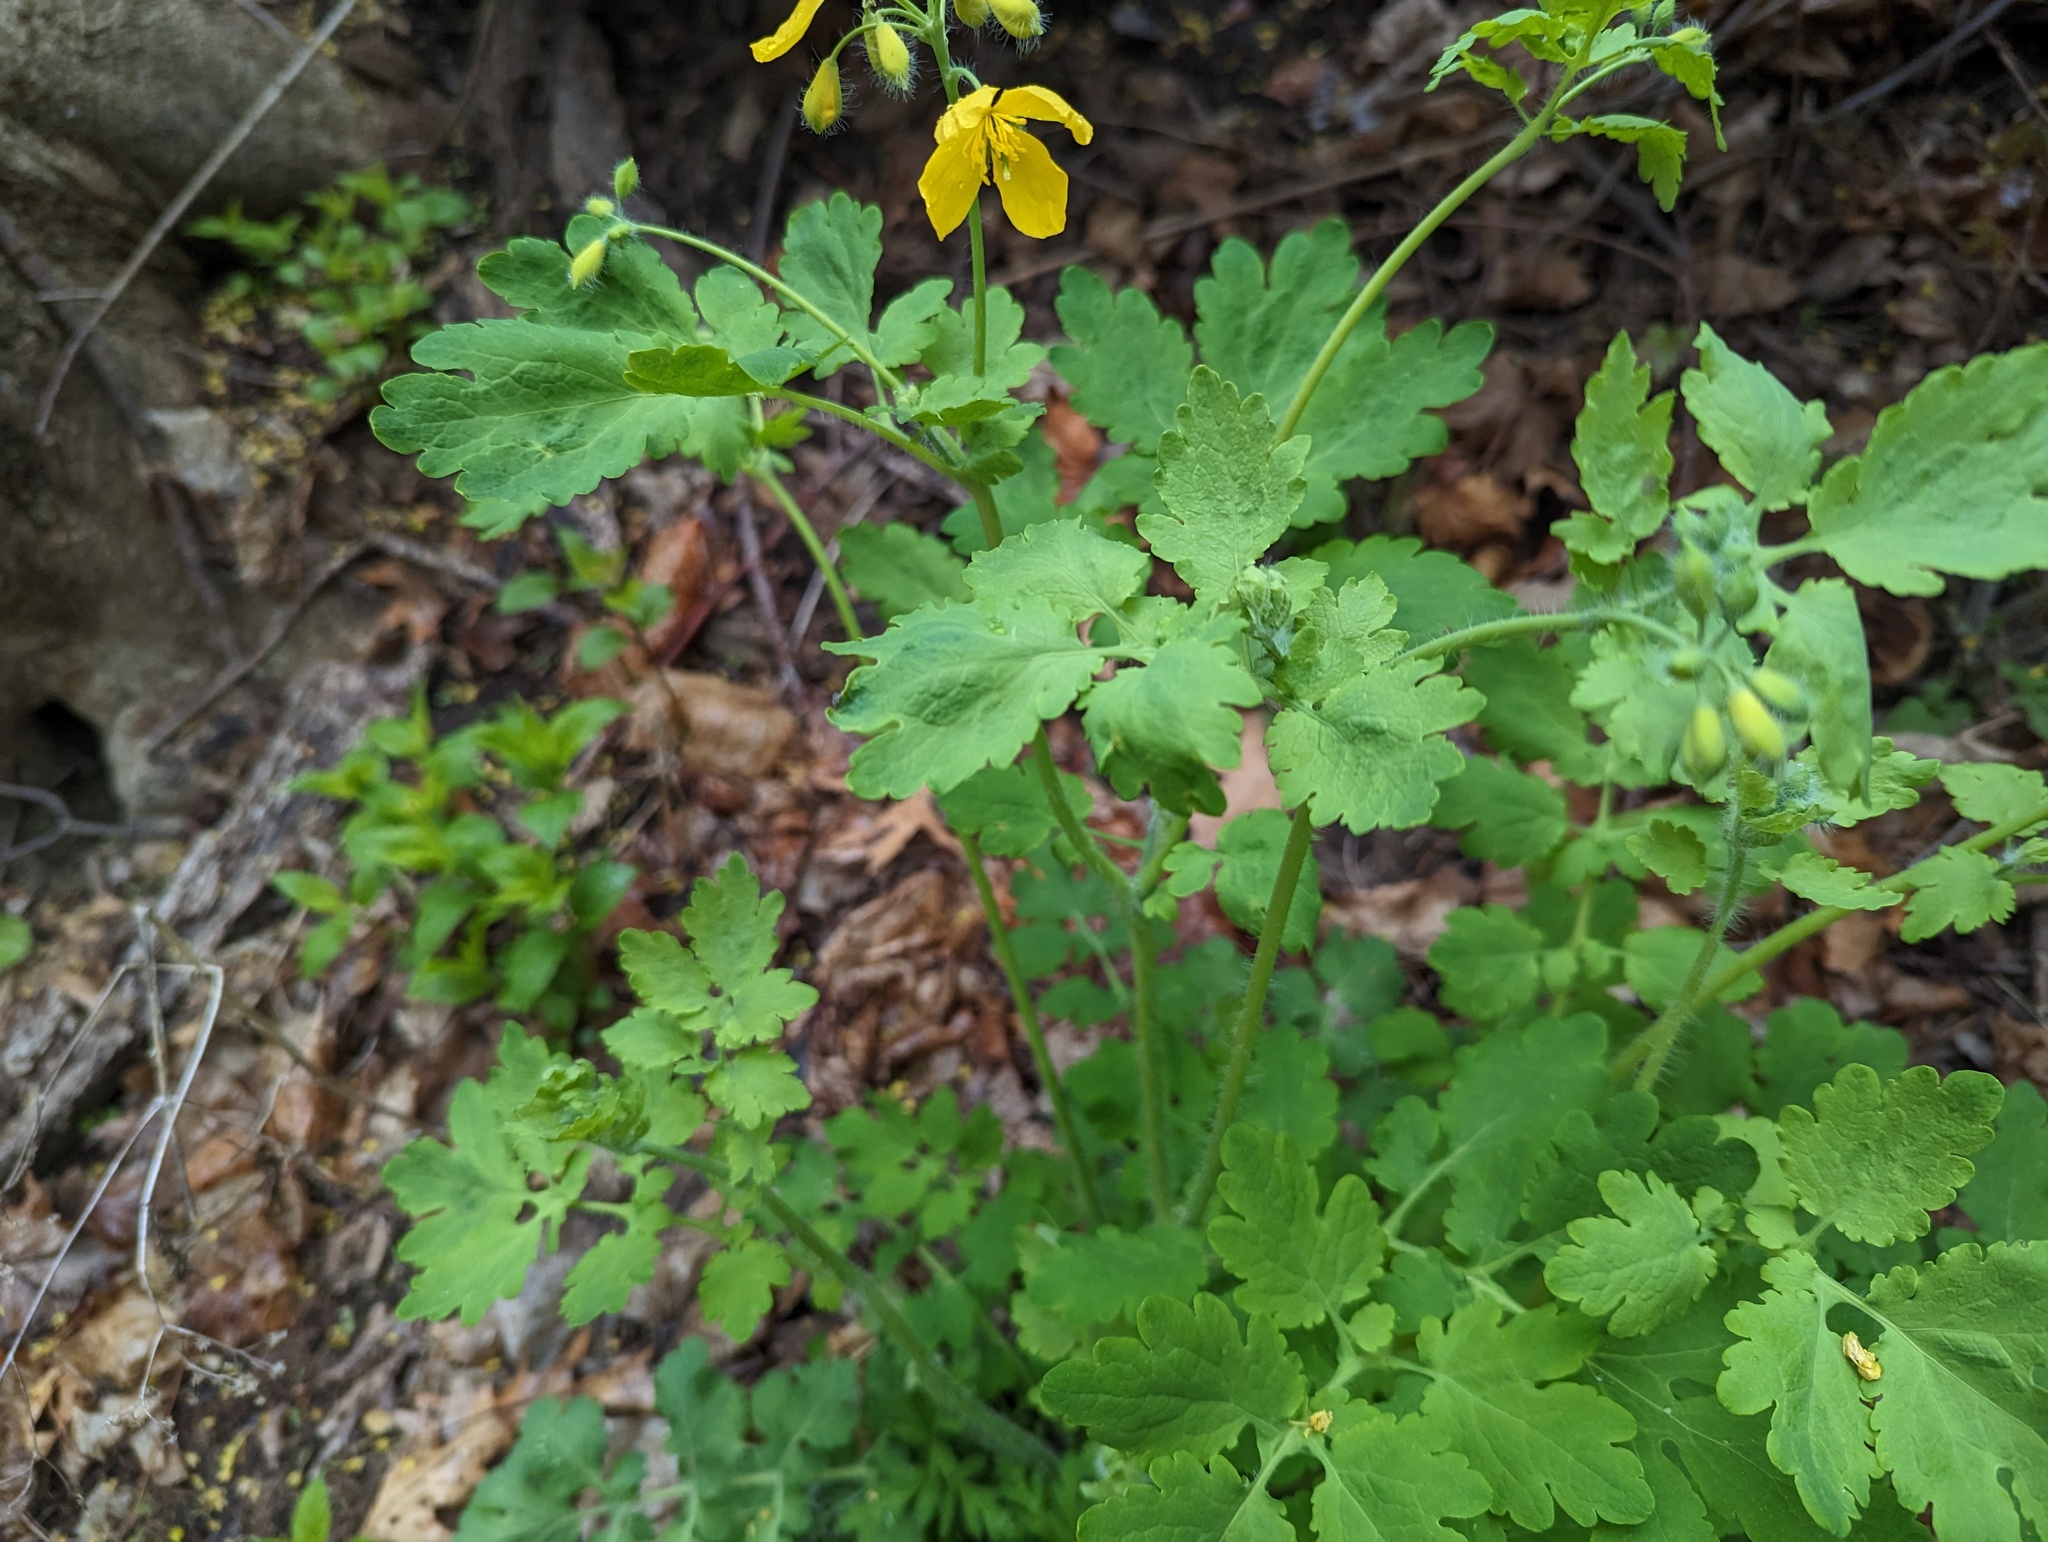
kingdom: Plantae
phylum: Tracheophyta
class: Magnoliopsida
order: Ranunculales
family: Papaveraceae
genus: Chelidonium
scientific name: Chelidonium majus
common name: Greater celandine
